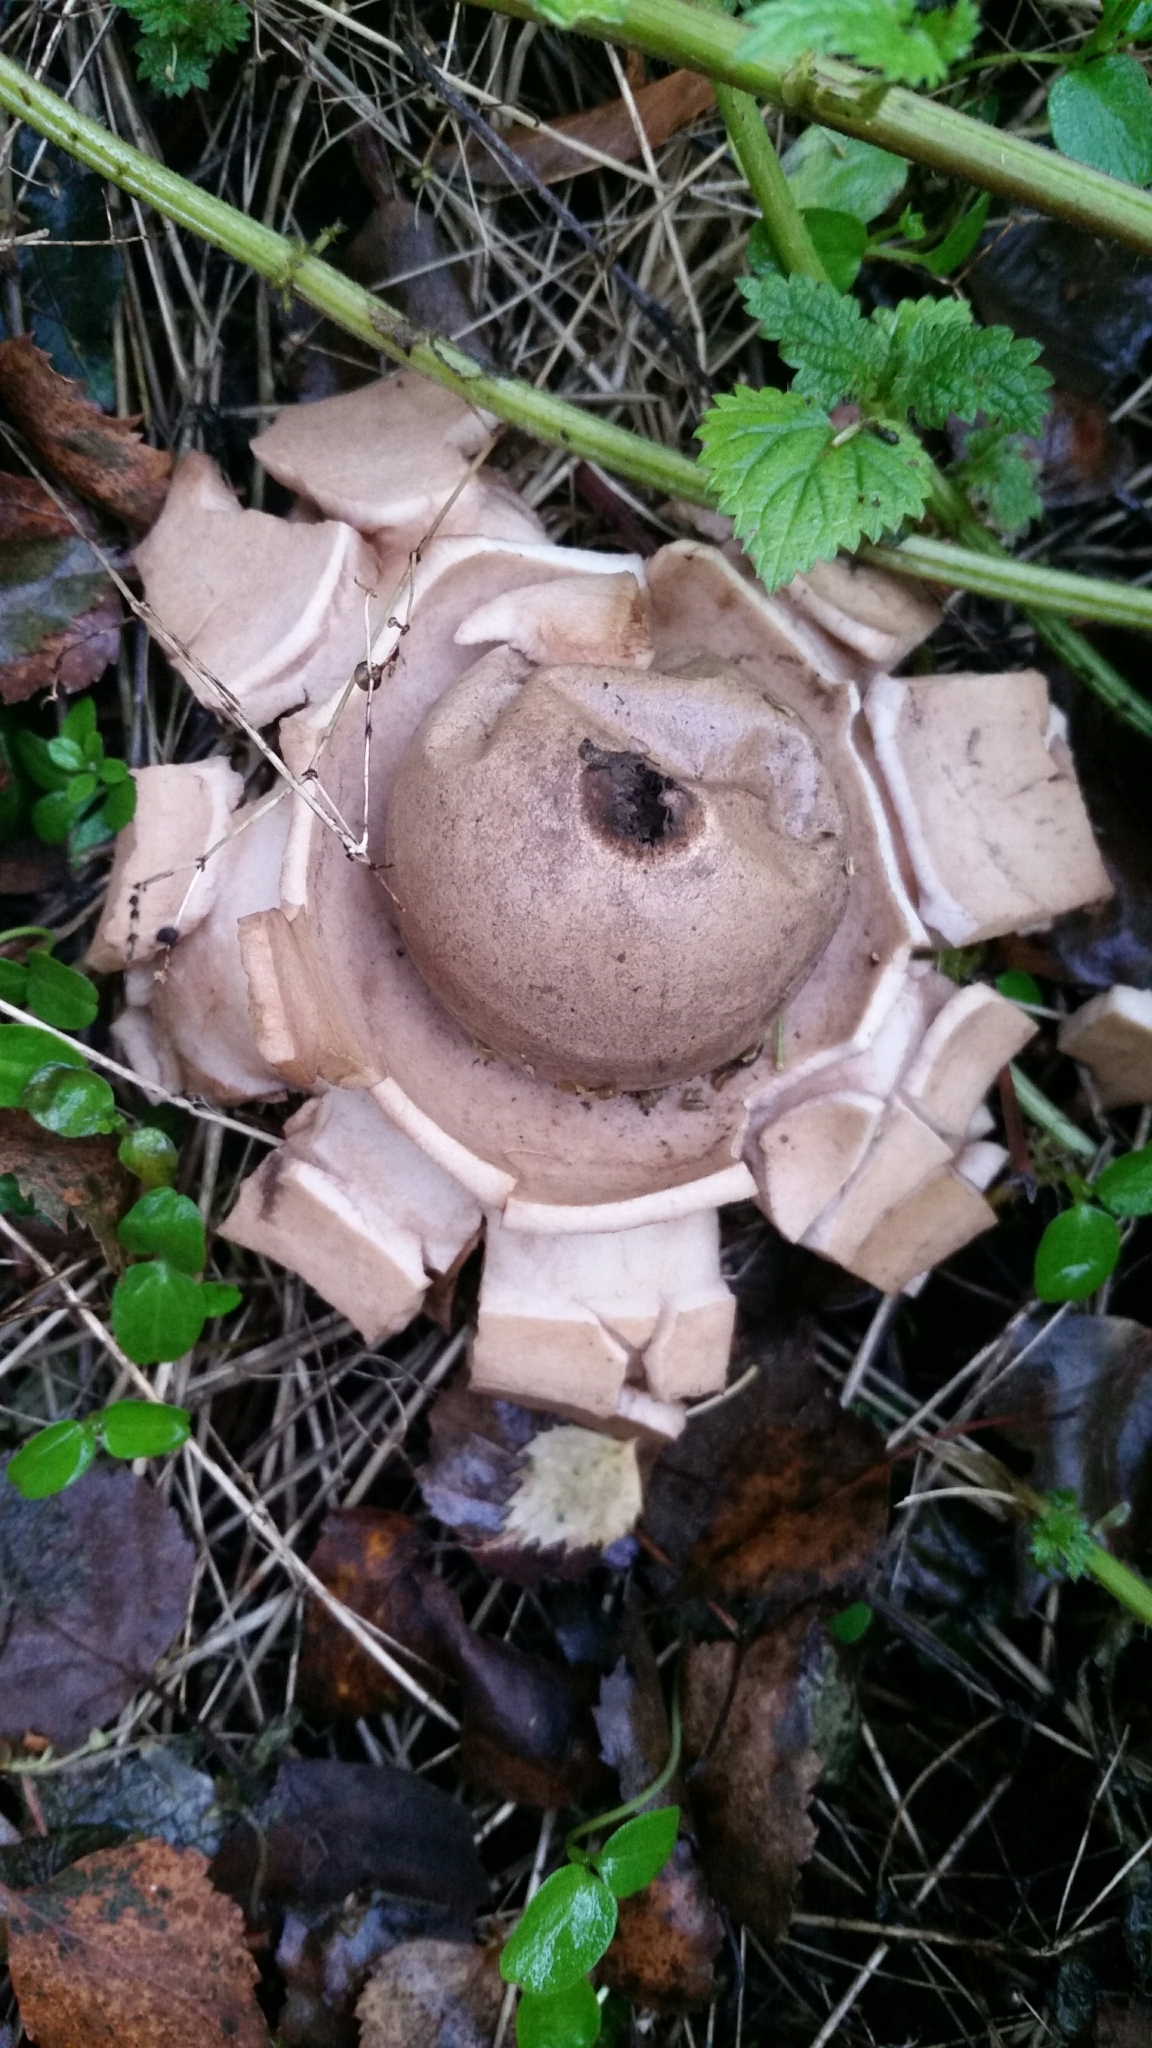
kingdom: Fungi
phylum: Basidiomycota
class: Agaricomycetes
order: Geastrales
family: Geastraceae
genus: Geastrum
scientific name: Geastrum triplex
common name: Collared earthstar
